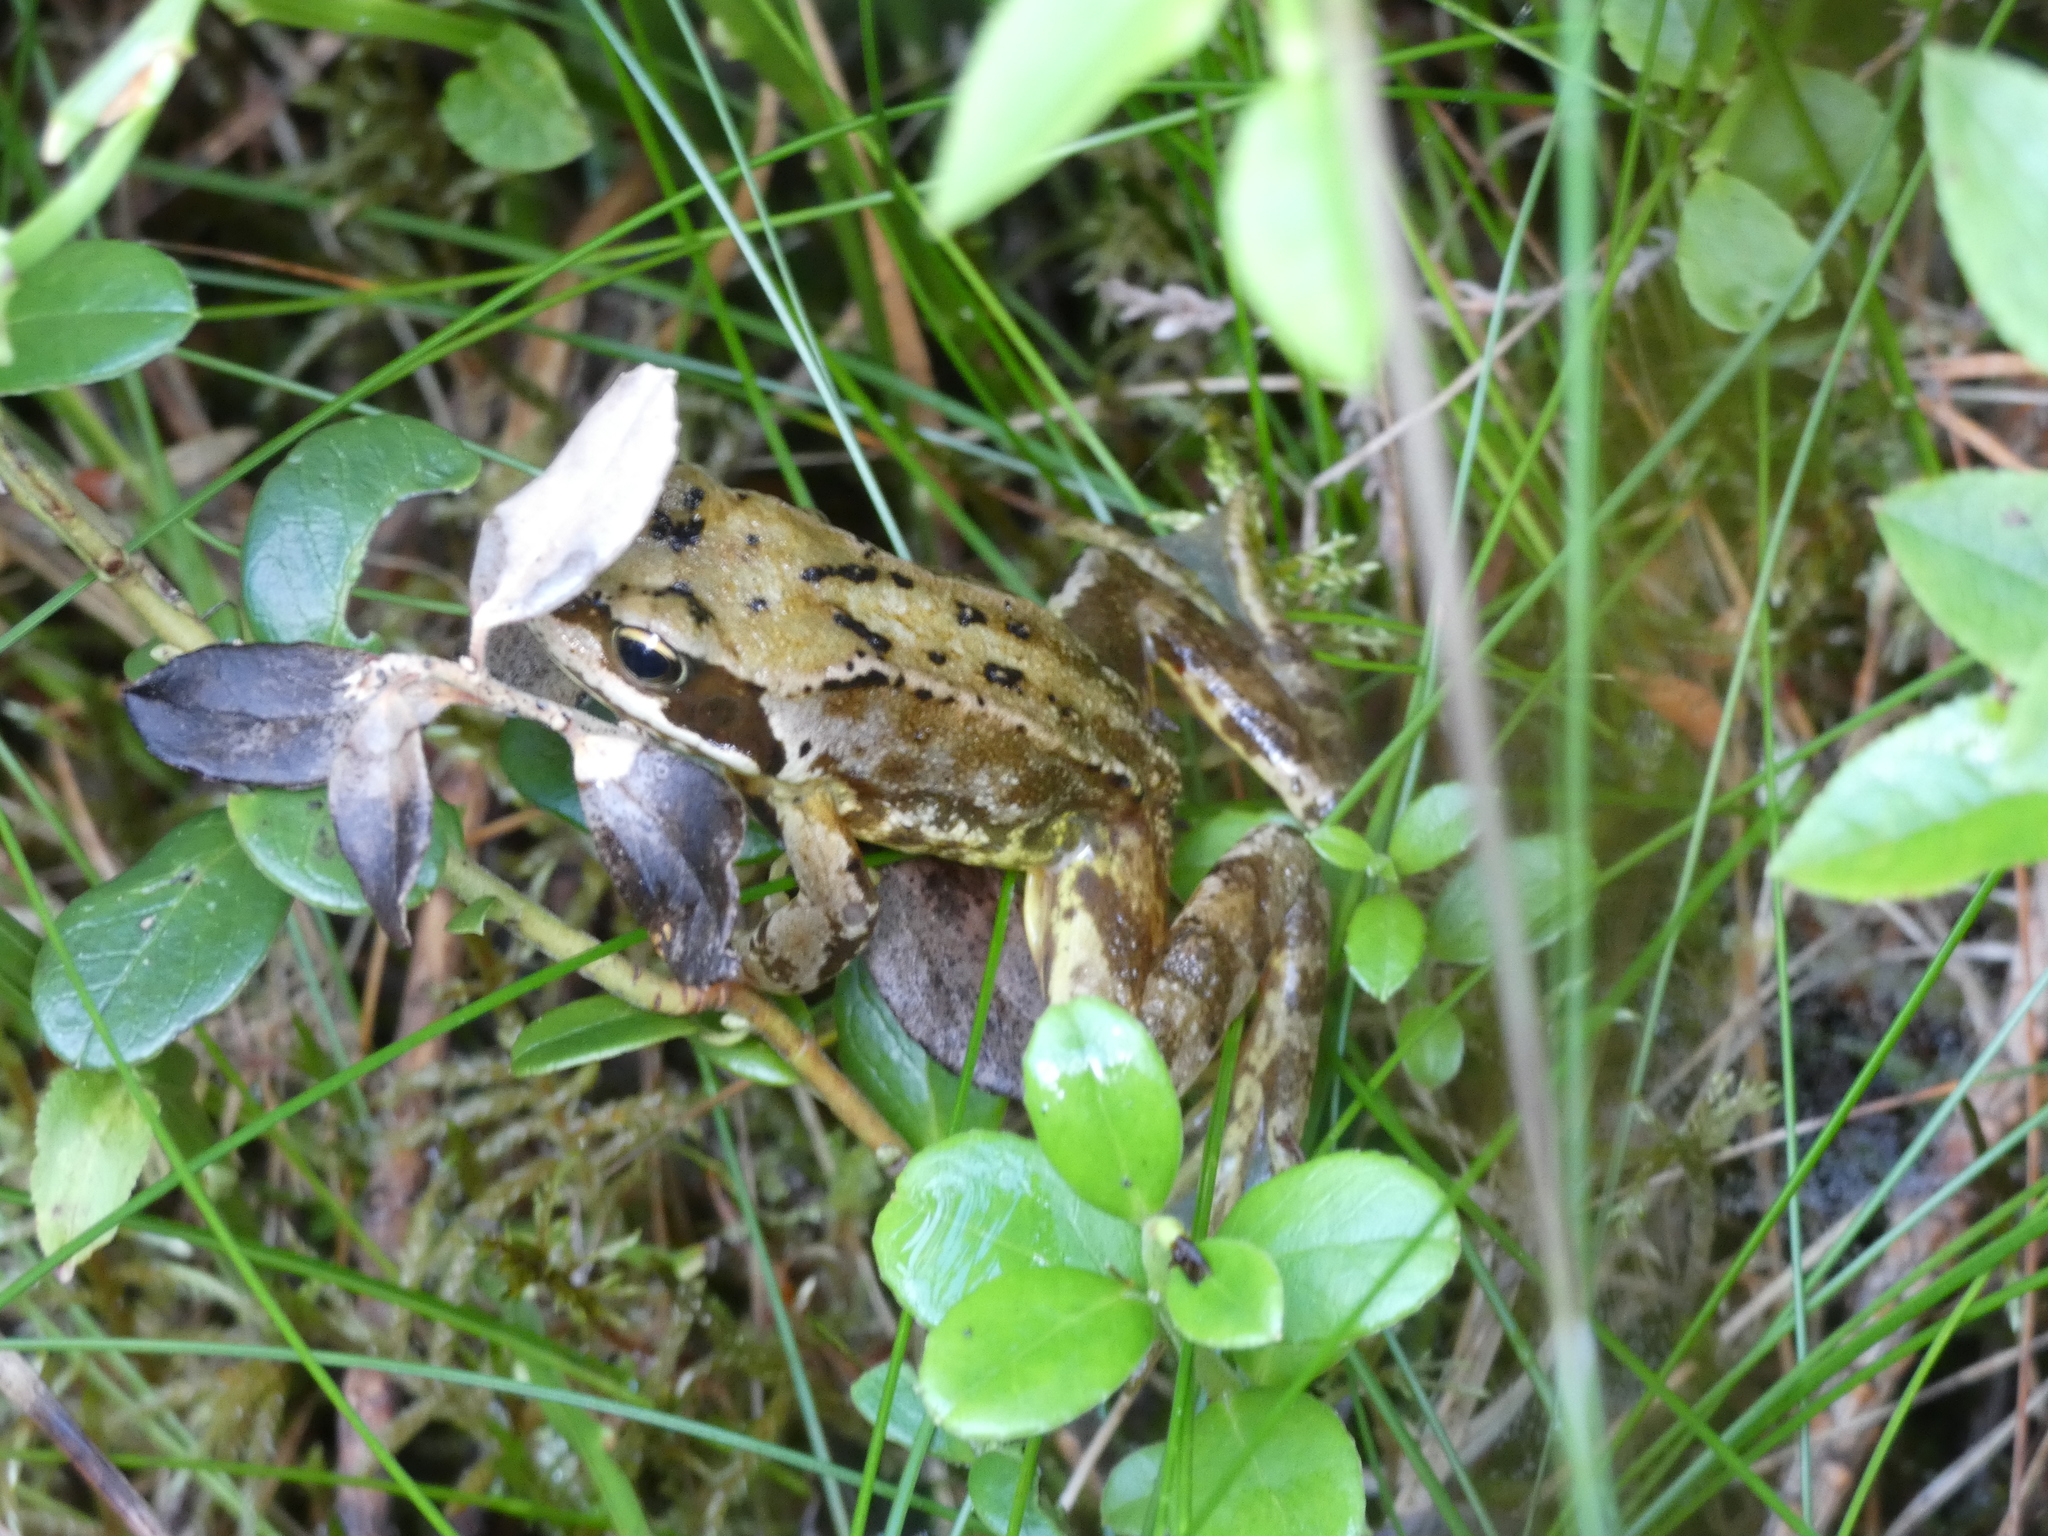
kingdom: Animalia
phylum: Chordata
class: Amphibia
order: Anura
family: Ranidae
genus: Rana
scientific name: Rana temporaria
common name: Common frog
